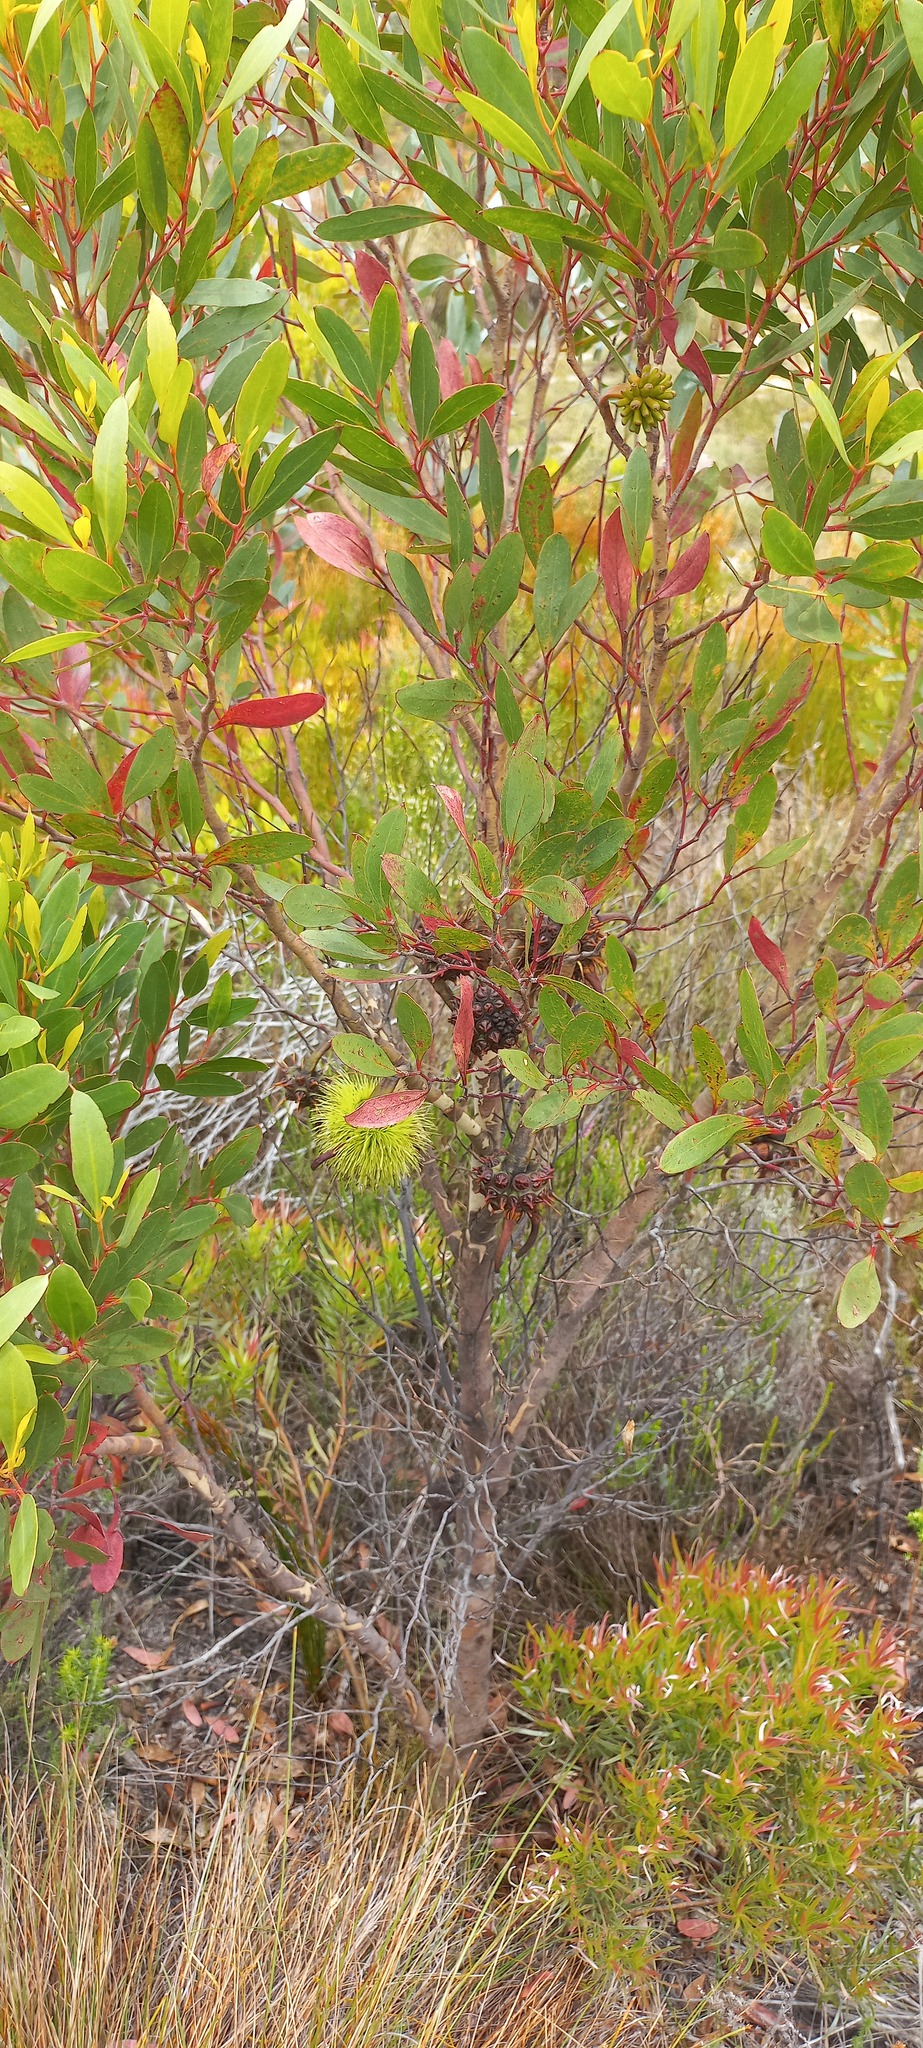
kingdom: Plantae
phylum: Tracheophyta
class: Magnoliopsida
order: Myrtales
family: Myrtaceae
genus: Eucalyptus
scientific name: Eucalyptus conferruminata
